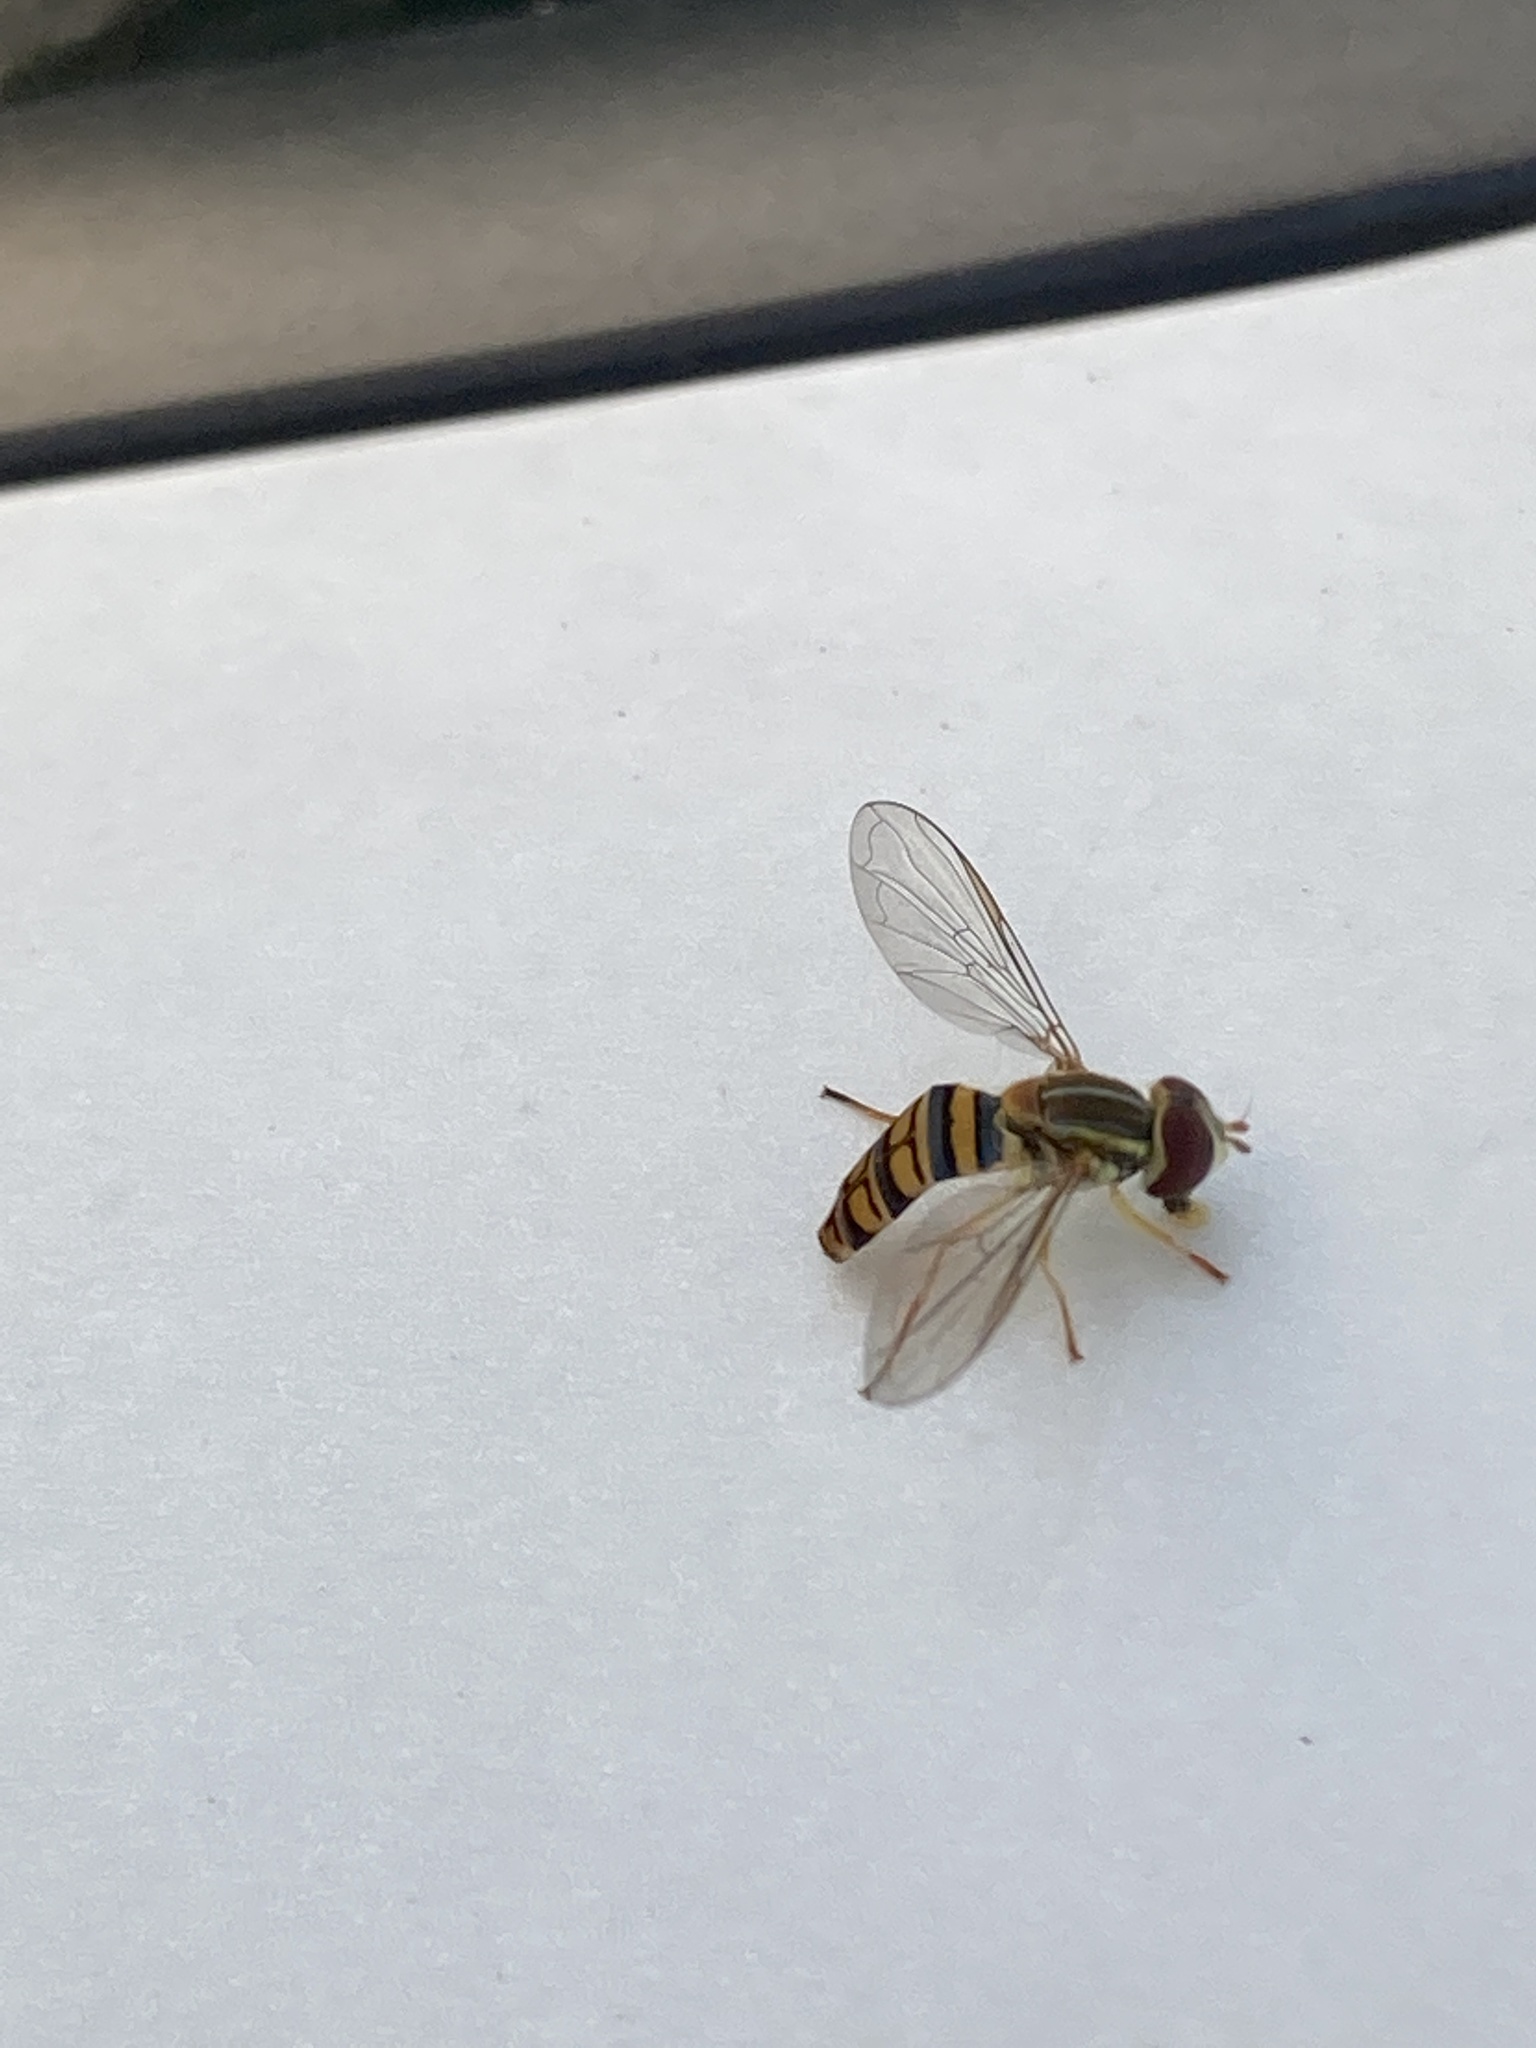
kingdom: Animalia
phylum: Arthropoda
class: Insecta
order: Diptera
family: Syrphidae
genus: Toxomerus
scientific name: Toxomerus politus
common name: Maize calligrapher
